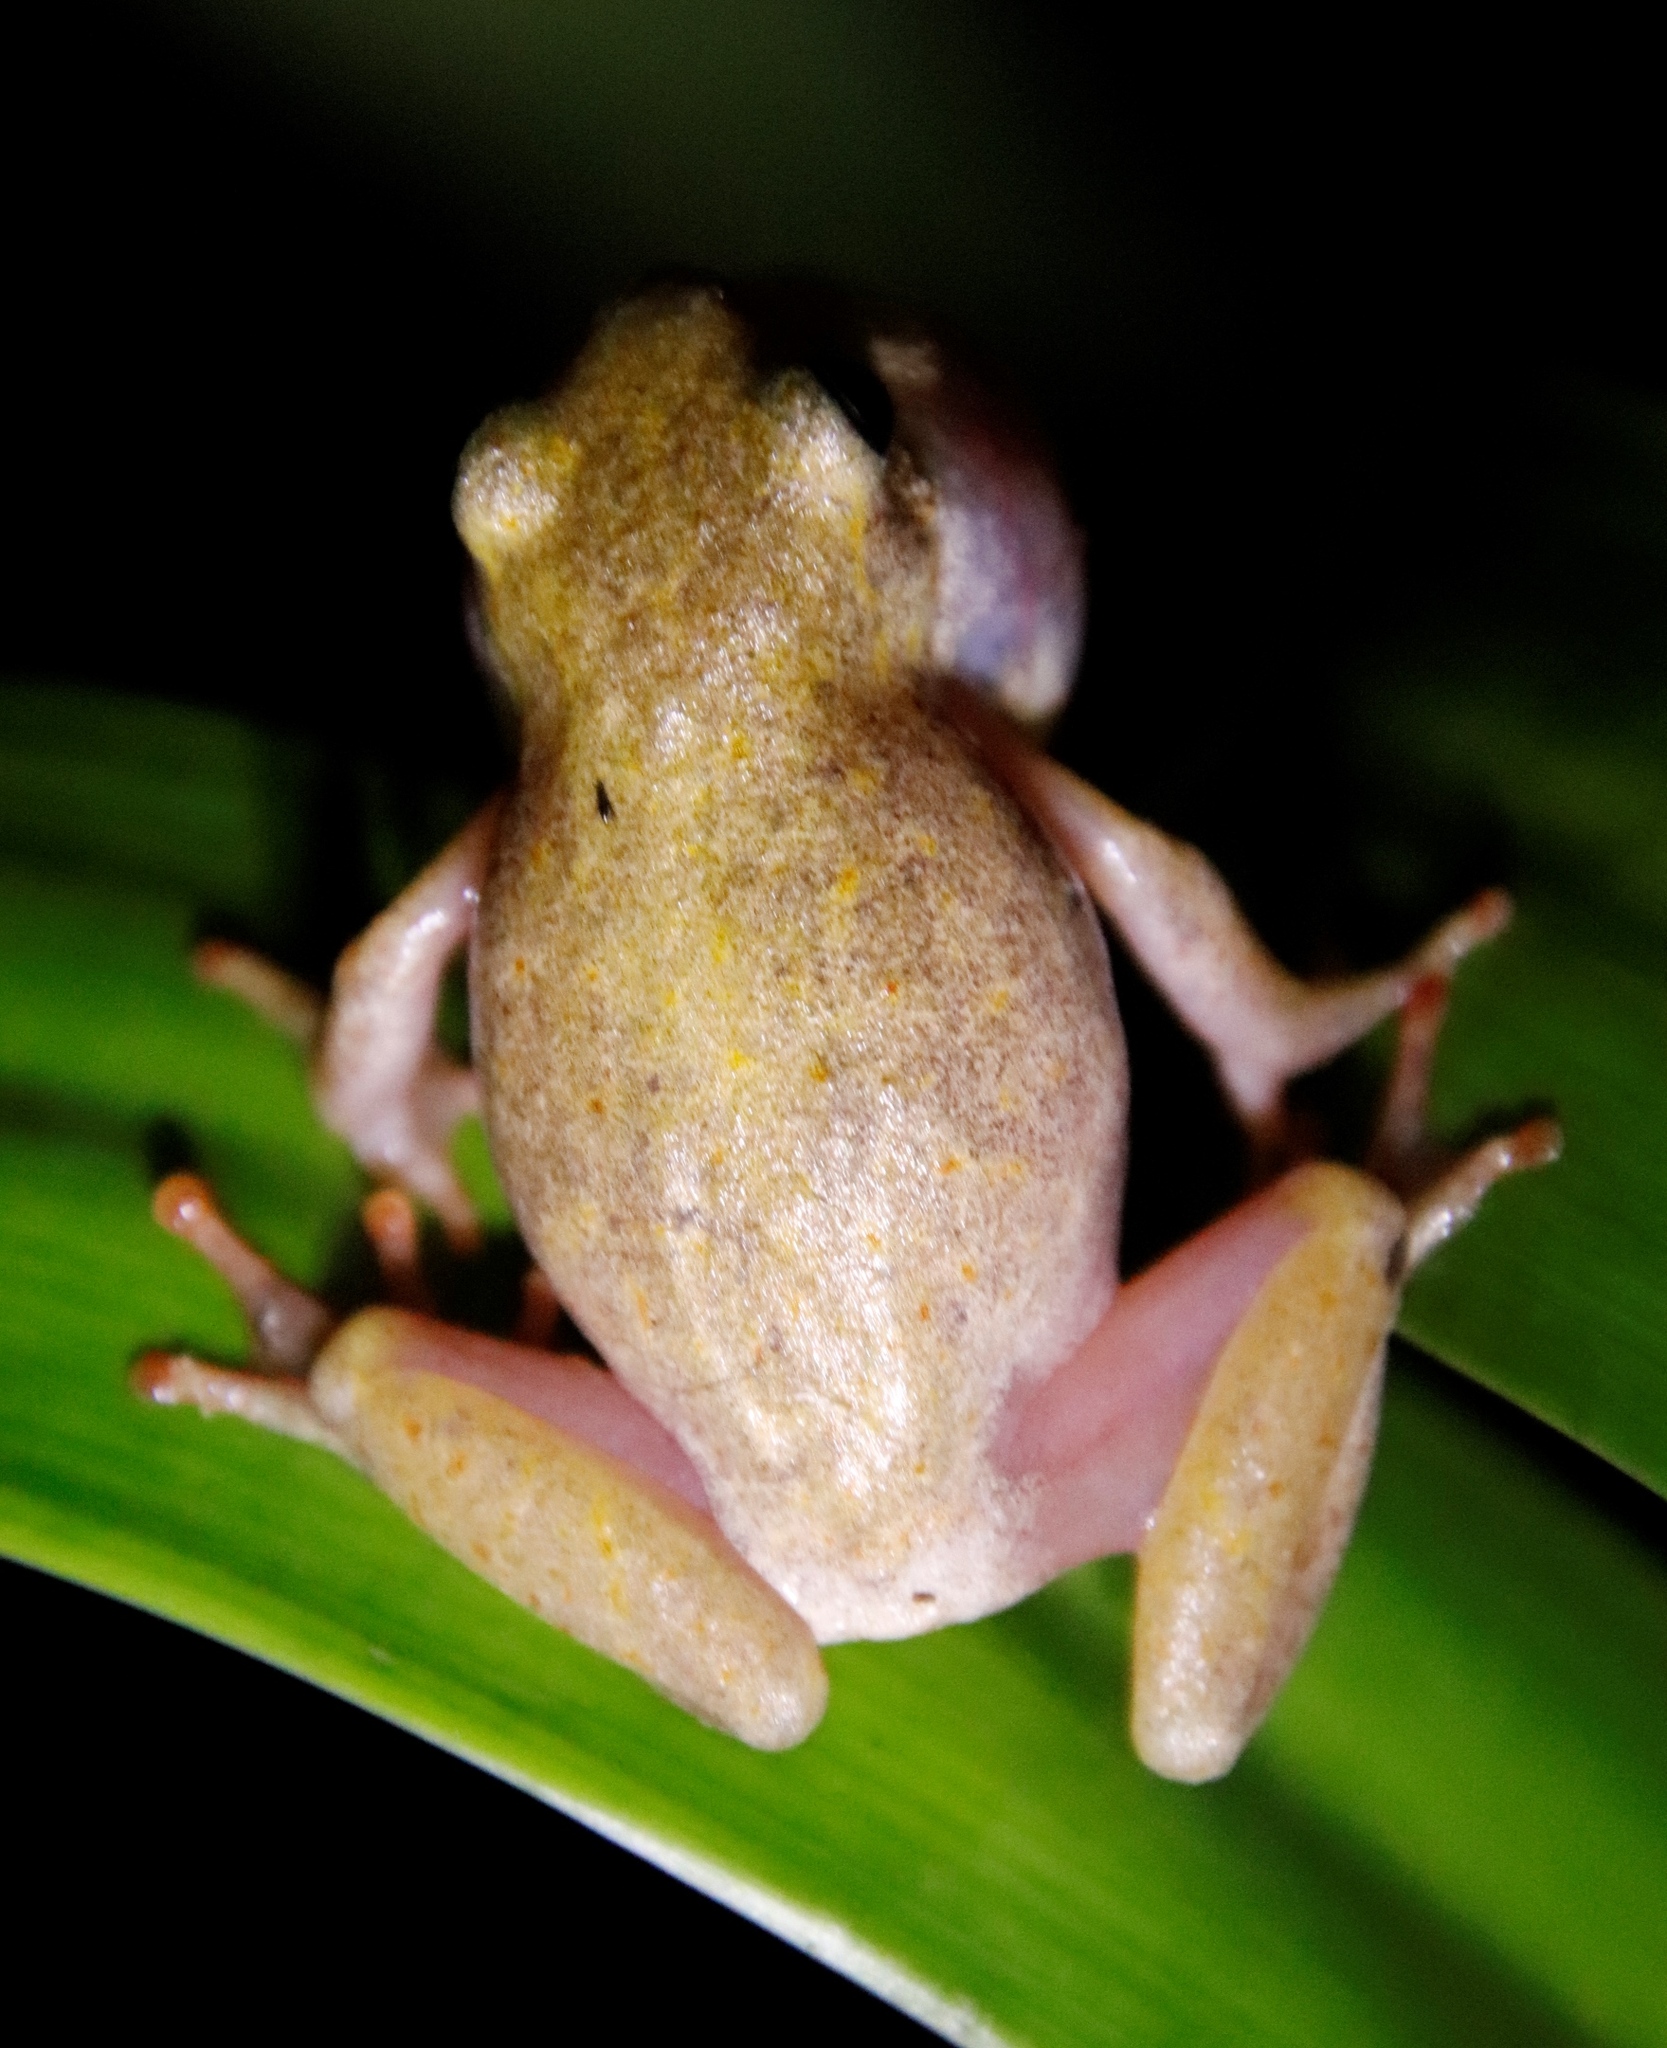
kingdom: Animalia
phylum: Chordata
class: Amphibia
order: Anura
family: Hyperoliidae
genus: Hyperolius
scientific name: Hyperolius marmoratus
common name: Painted reed frog
